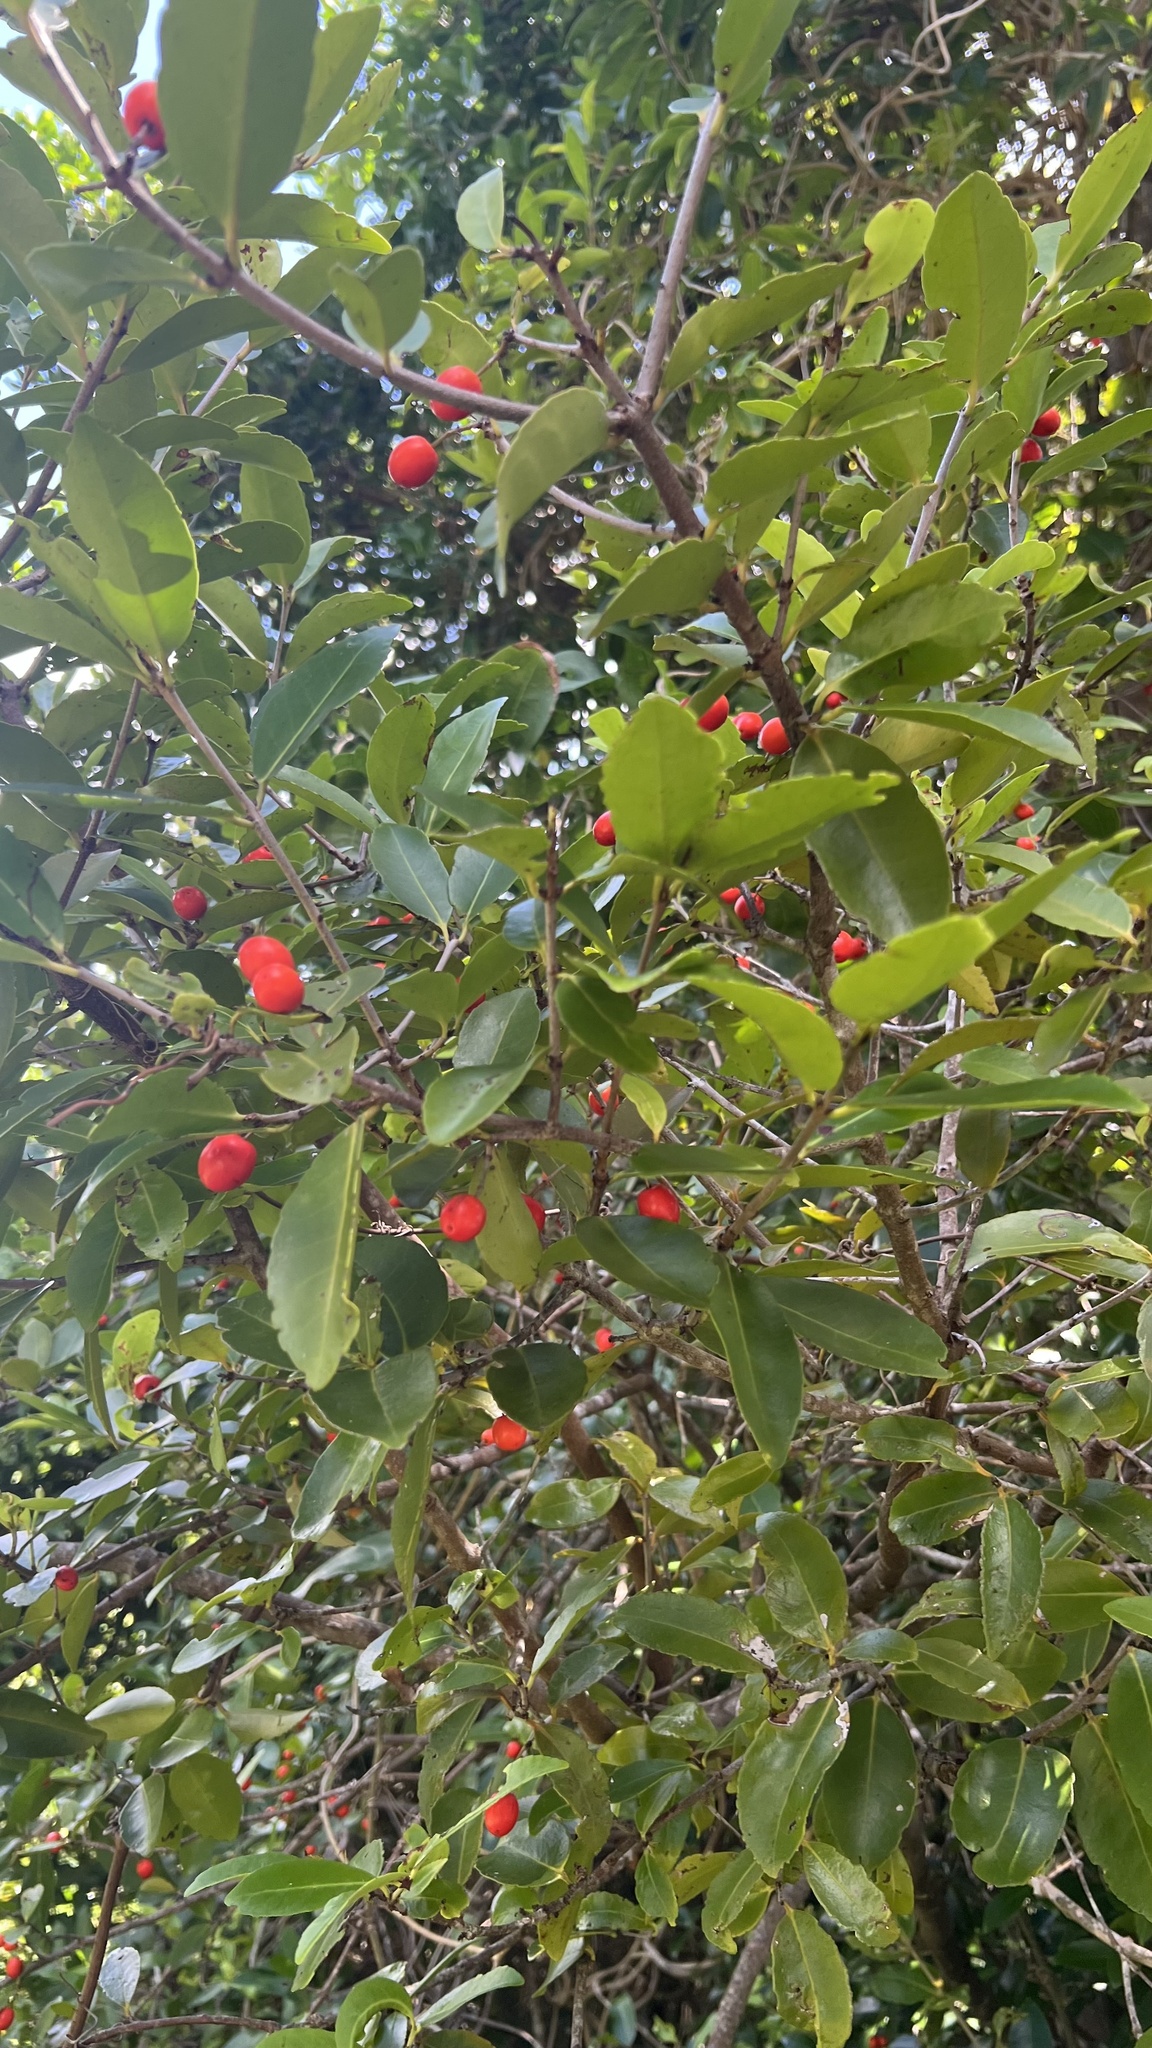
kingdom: Plantae
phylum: Tracheophyta
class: Magnoliopsida
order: Celastrales
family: Celastraceae
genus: Elaeodendron
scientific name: Elaeodendron australe
